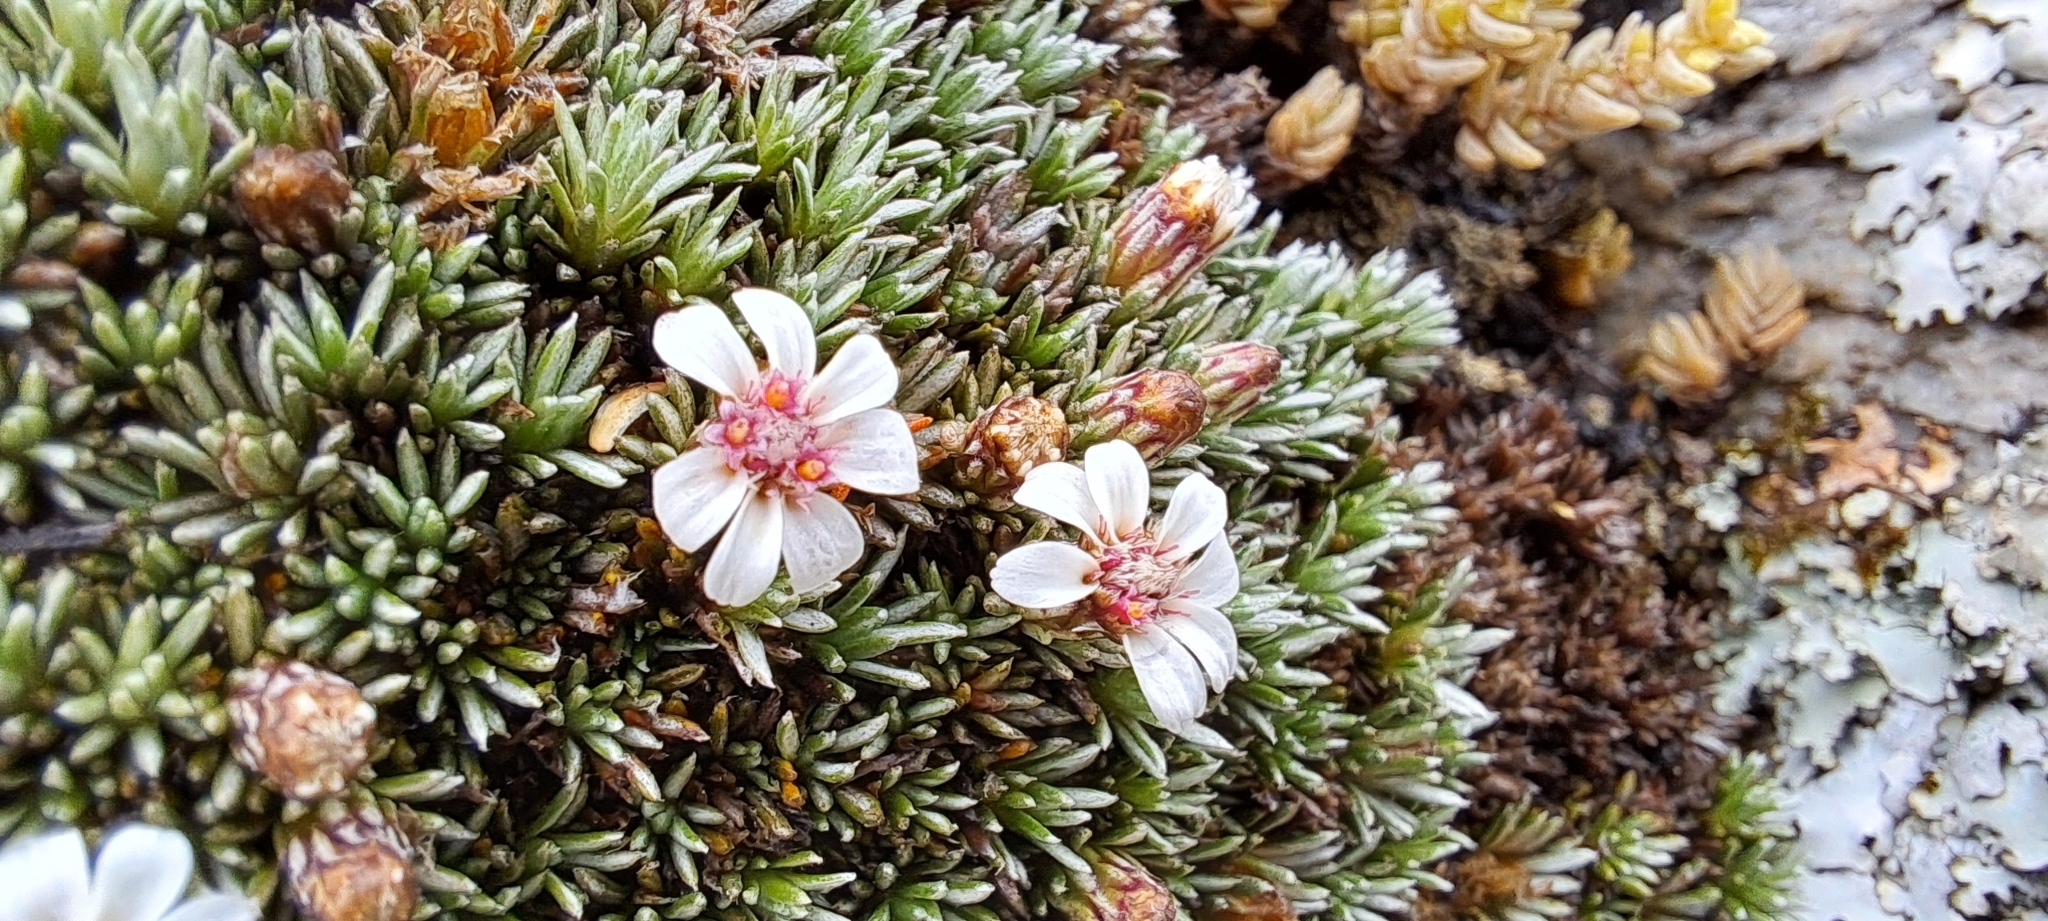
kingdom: Plantae
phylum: Tracheophyta
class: Magnoliopsida
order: Asterales
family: Asteraceae
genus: Muscosomorphe
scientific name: Muscosomorphe aretioides
